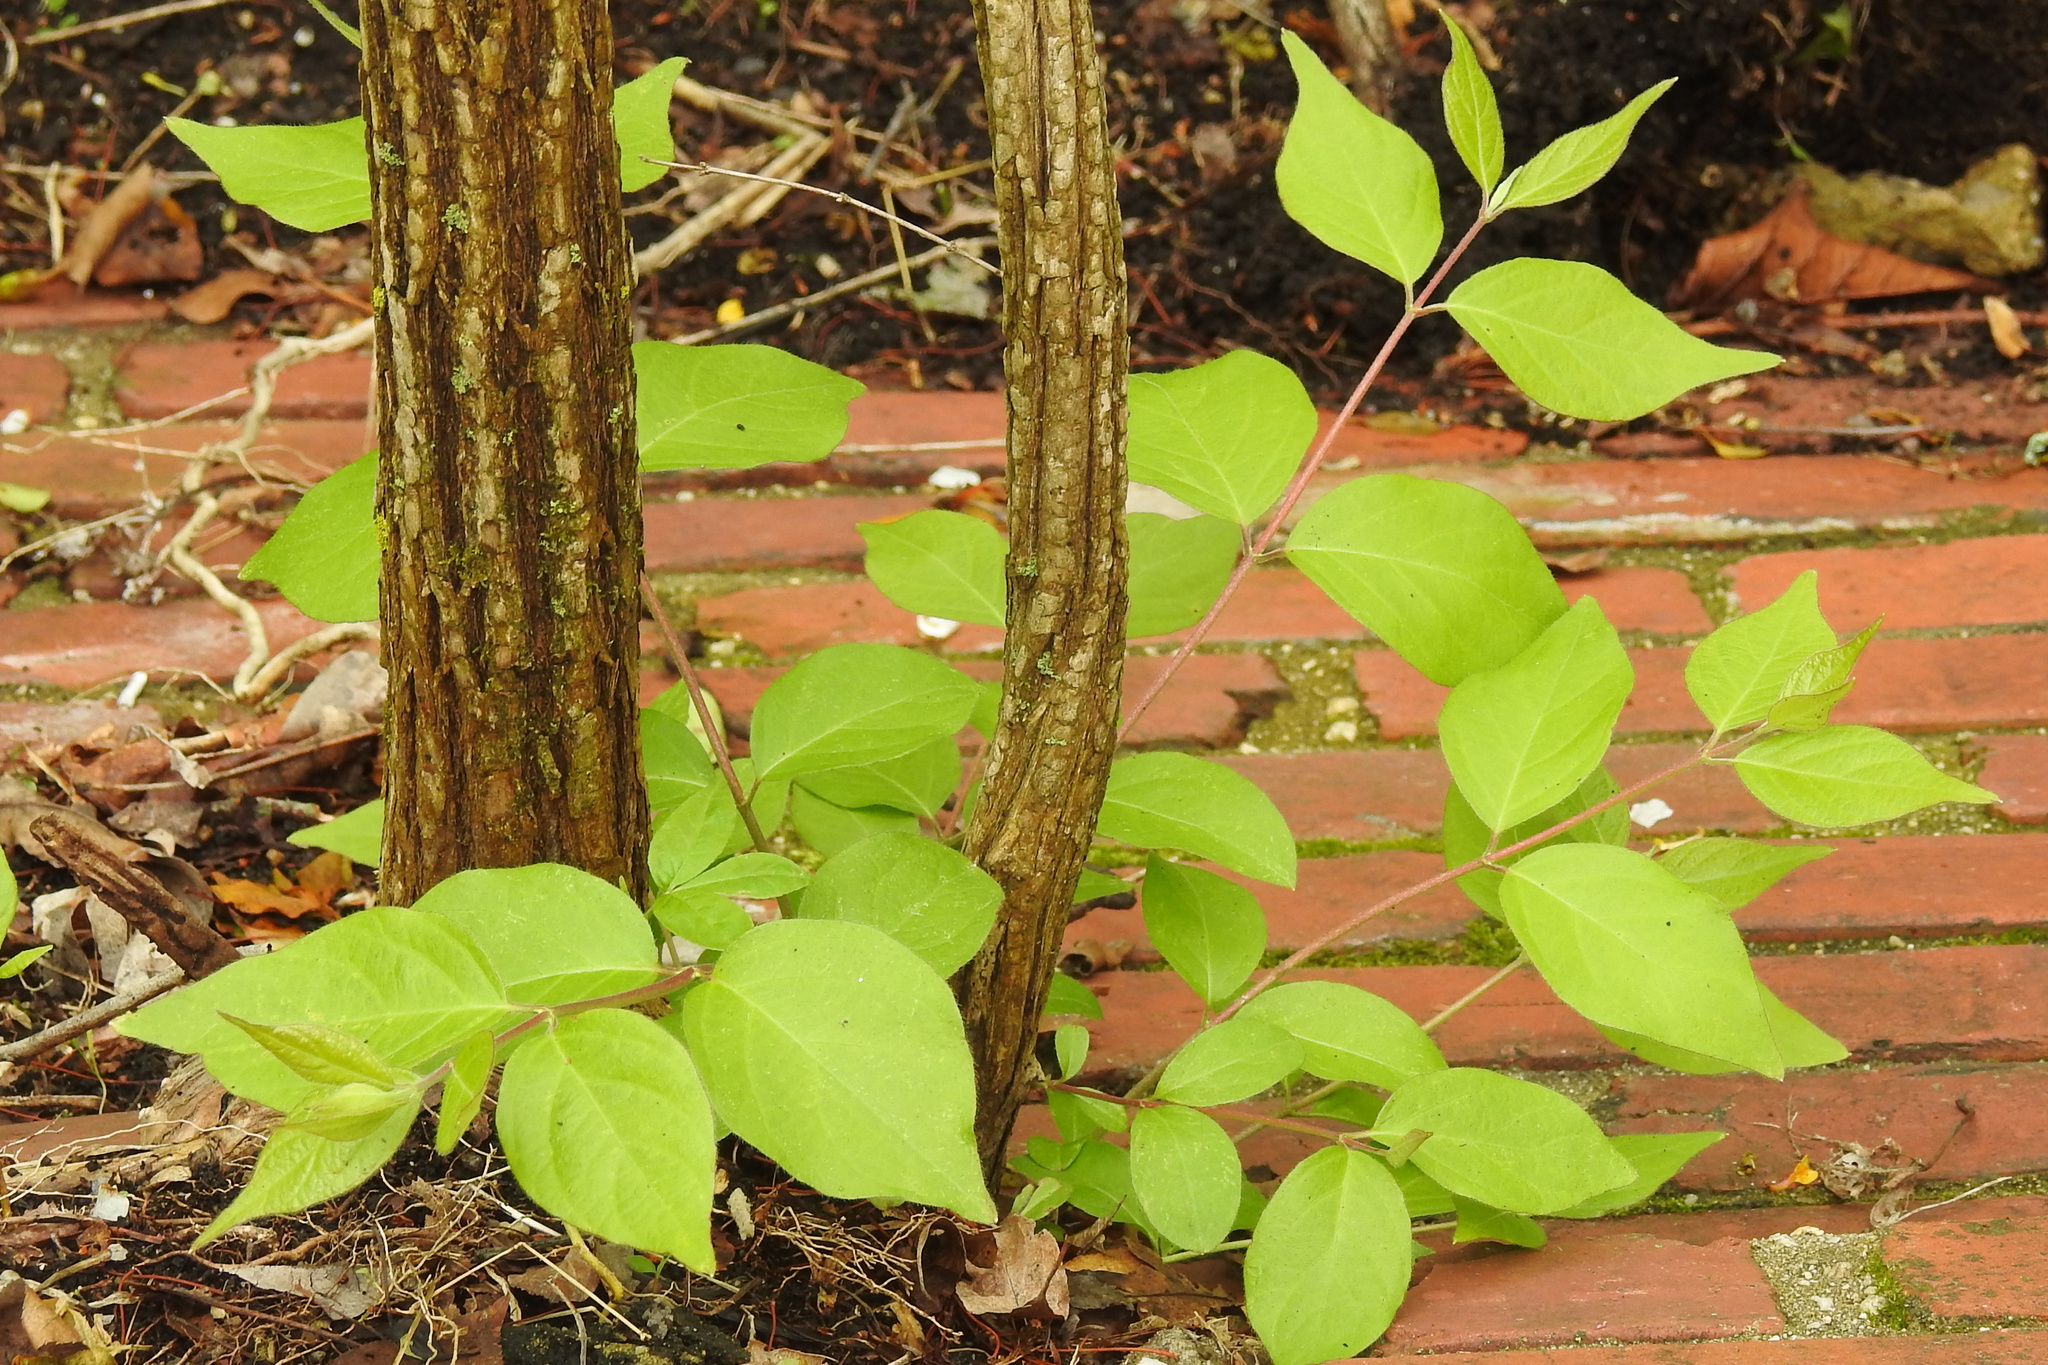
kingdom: Plantae
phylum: Tracheophyta
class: Magnoliopsida
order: Dipsacales
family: Caprifoliaceae
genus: Lonicera
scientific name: Lonicera maackii
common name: Amur honeysuckle
